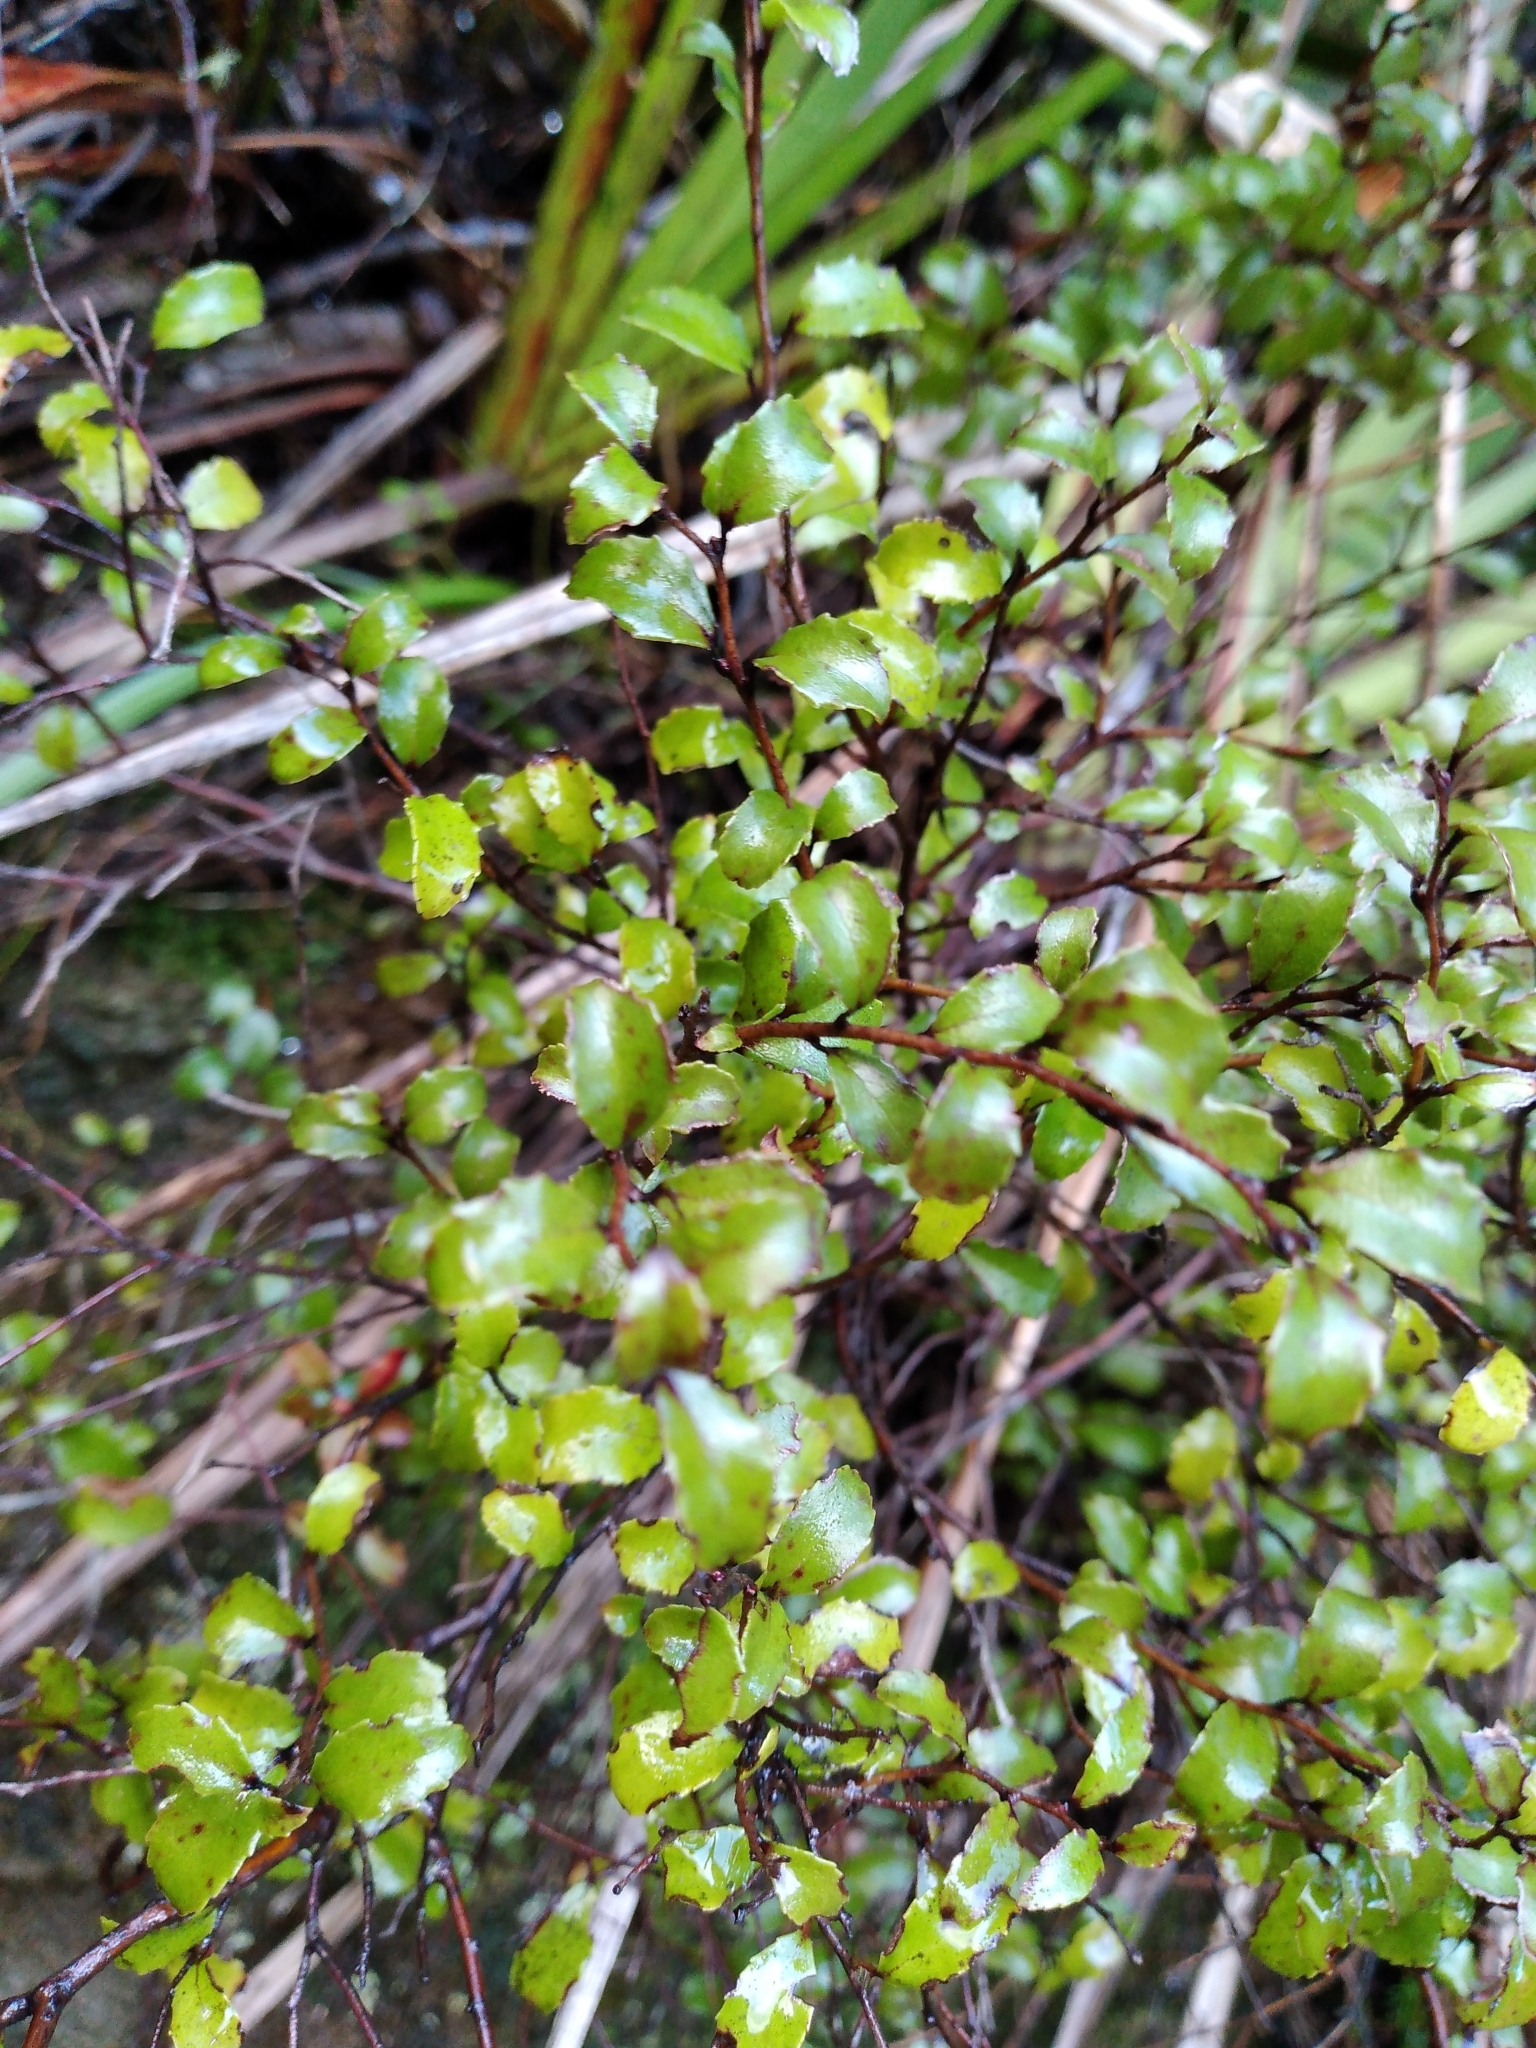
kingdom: Plantae
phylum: Tracheophyta
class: Magnoliopsida
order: Ericales
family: Ericaceae
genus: Gaultheria
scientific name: Gaultheria antipoda
